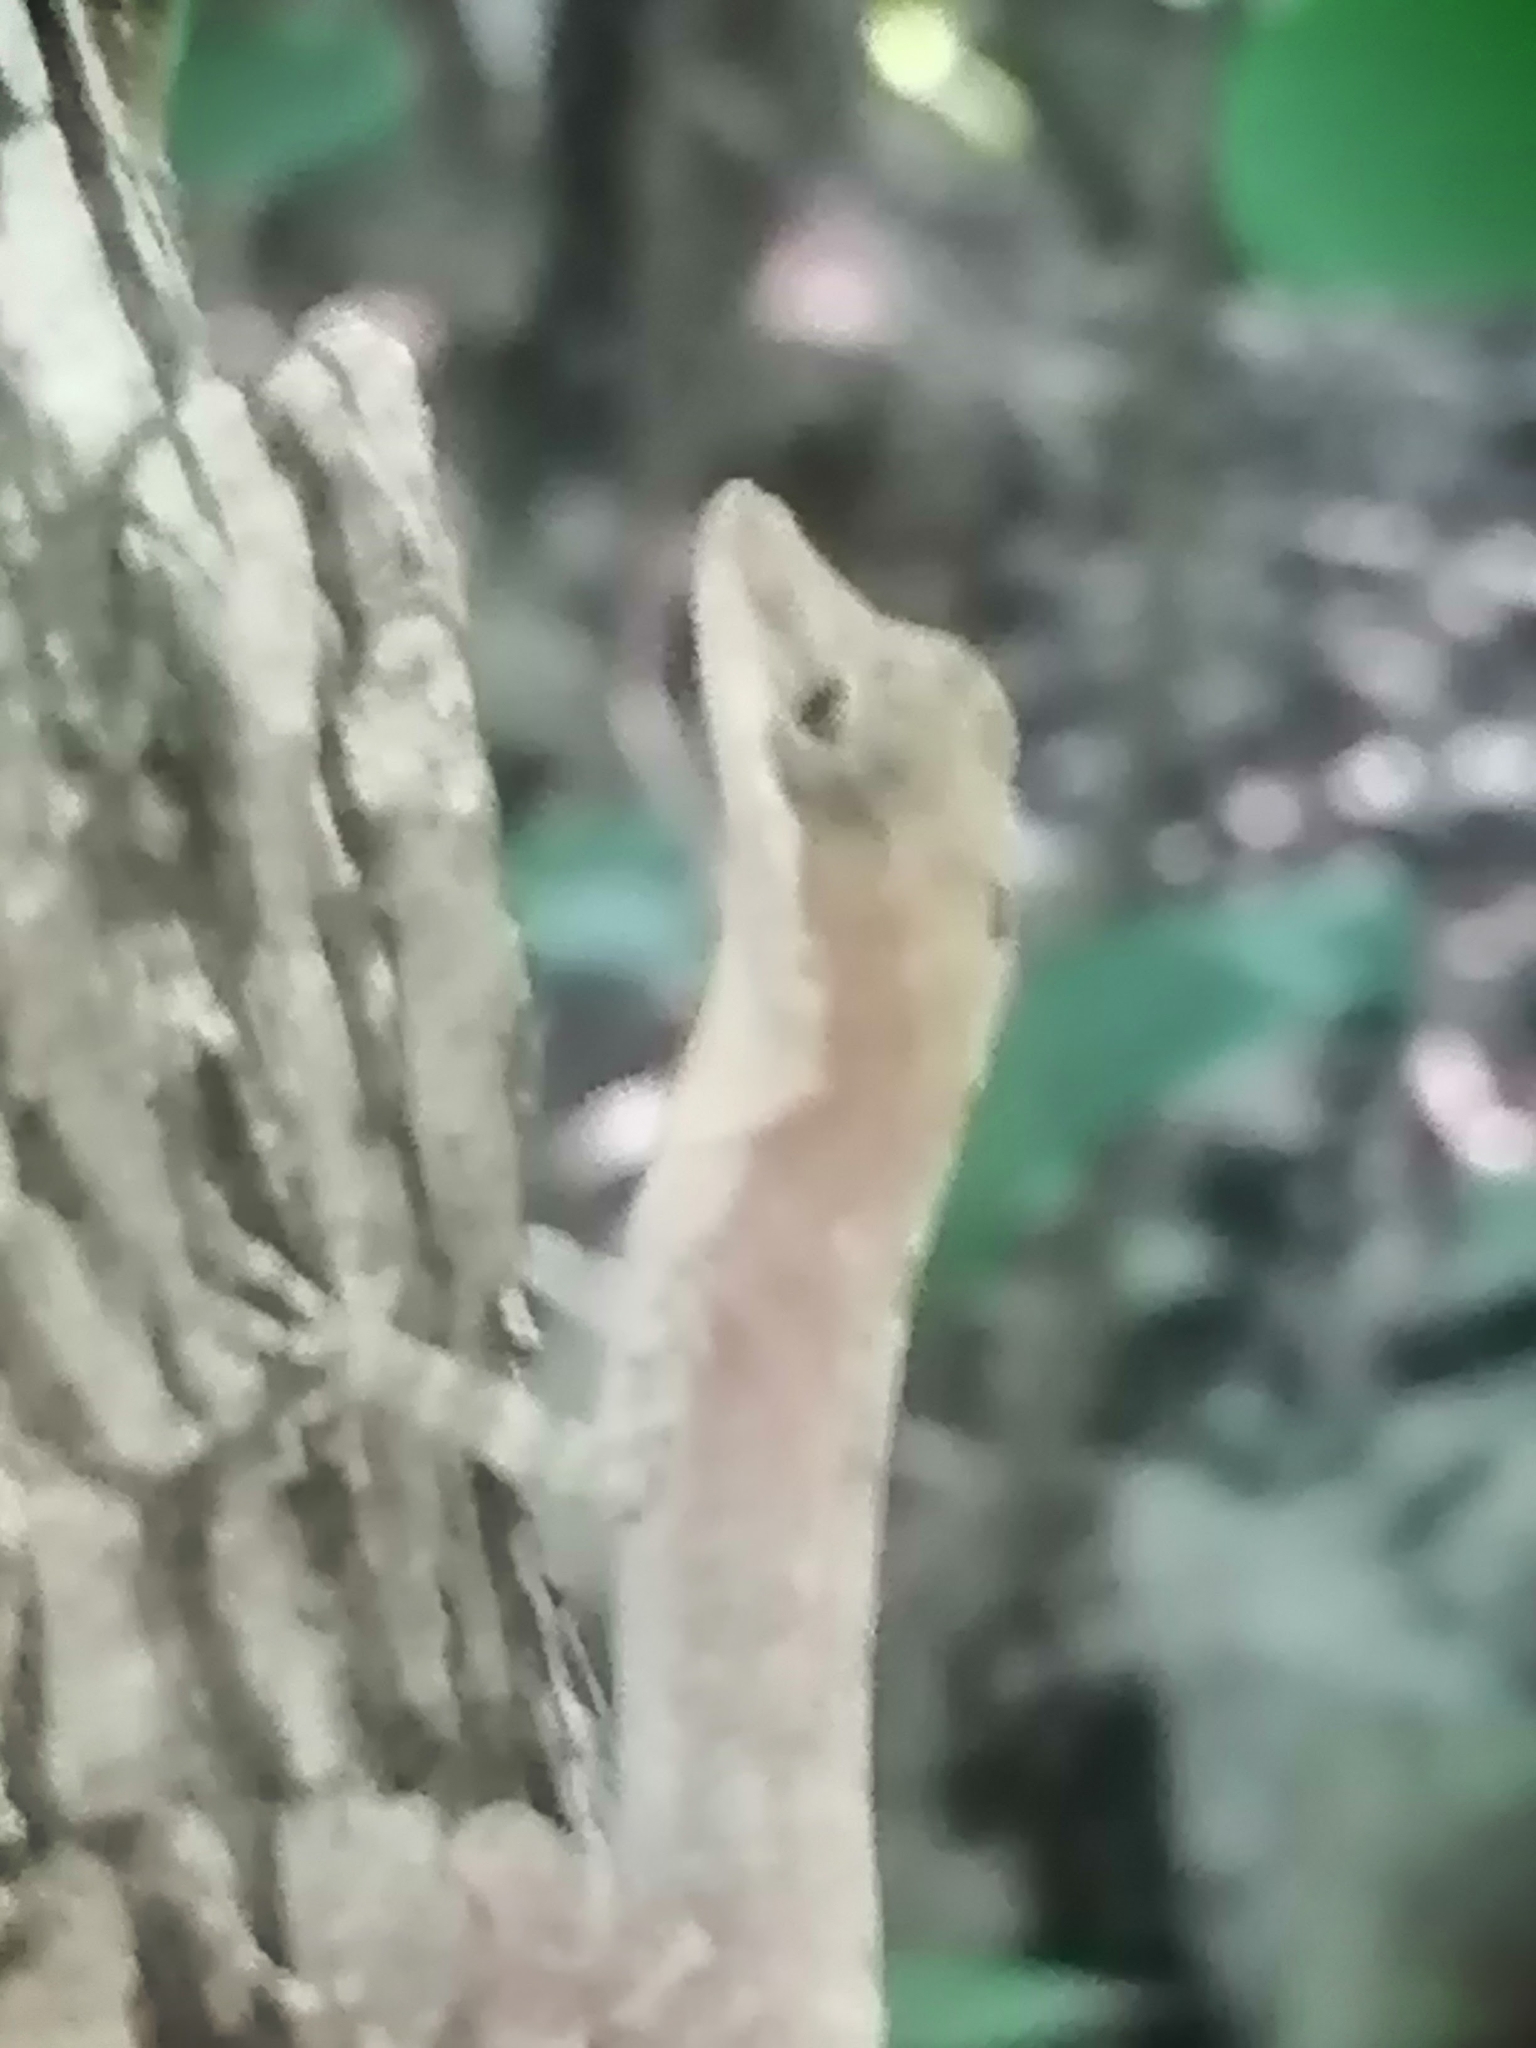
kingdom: Animalia
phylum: Chordata
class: Squamata
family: Dactyloidae
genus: Anolis
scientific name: Anolis rodriguezii
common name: Middle american smooth anole
